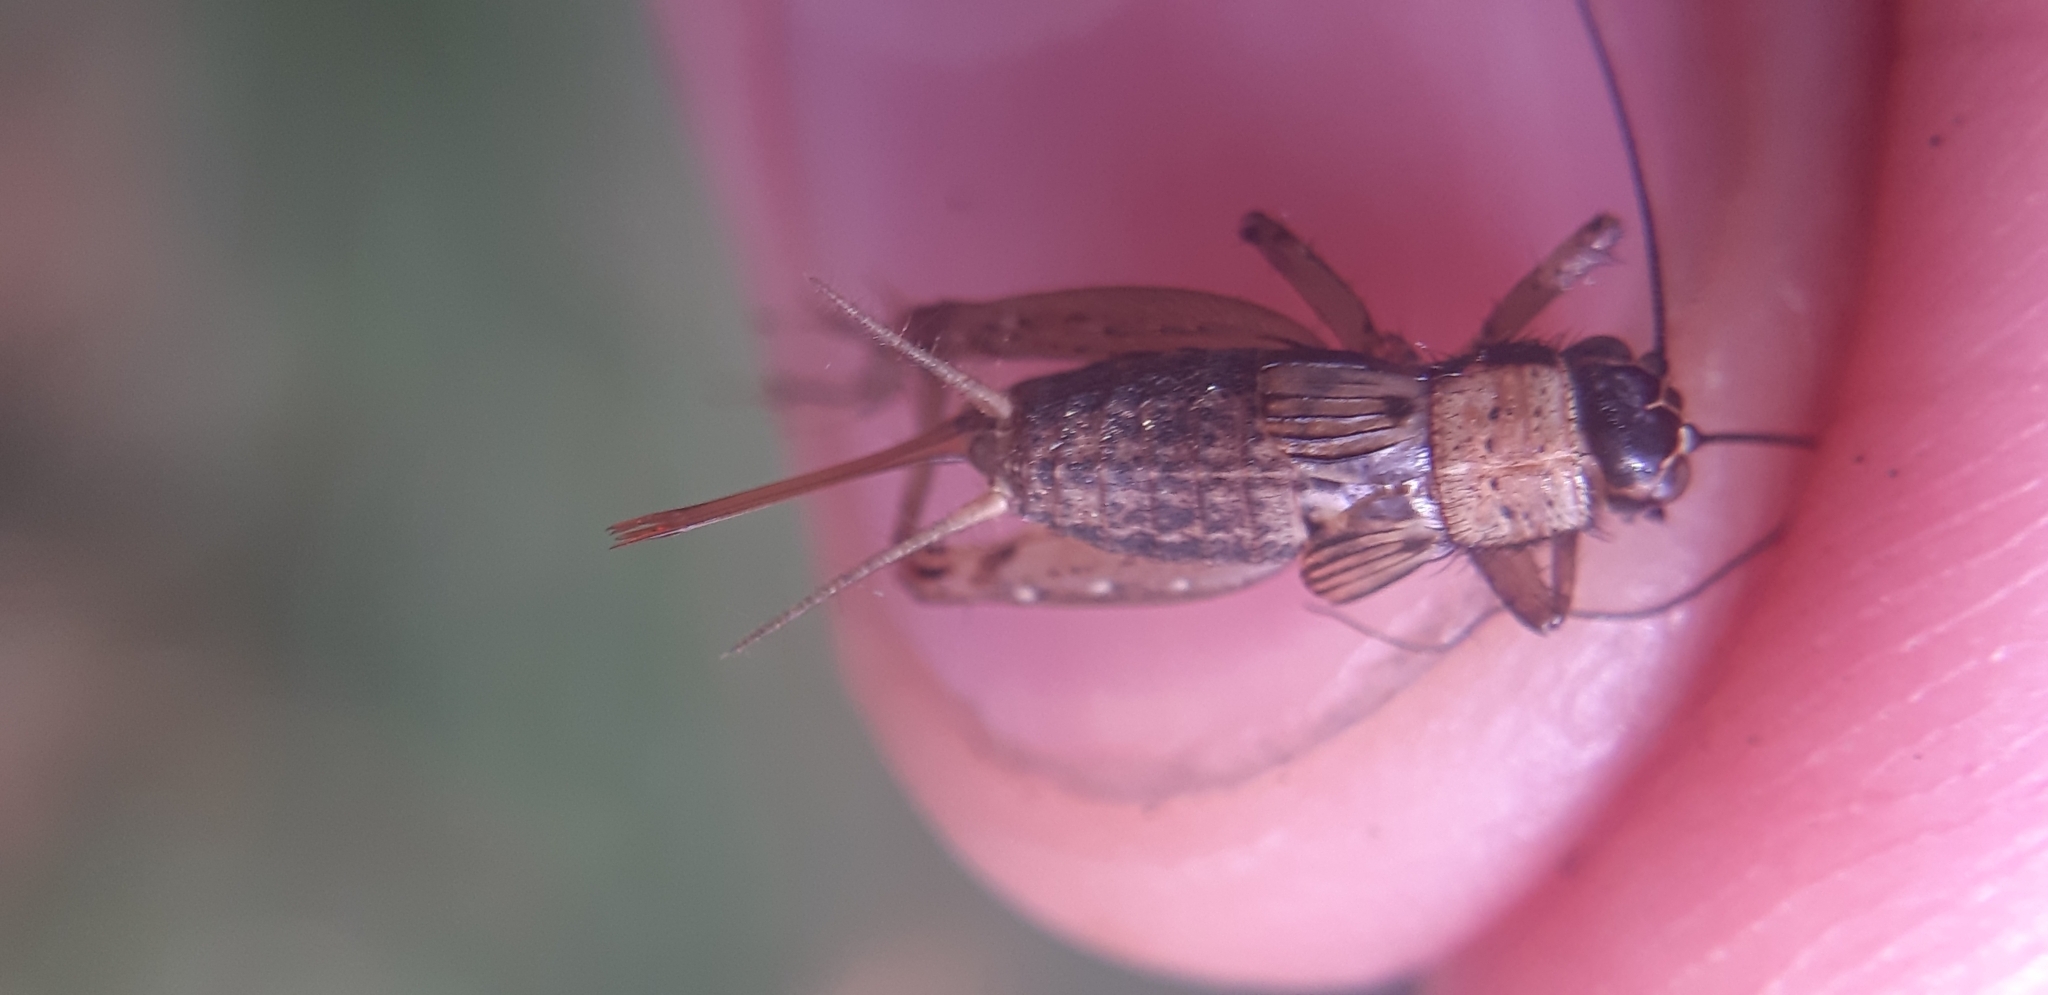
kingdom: Animalia
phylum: Arthropoda
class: Insecta
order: Orthoptera
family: Trigonidiidae
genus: Nemobius
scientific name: Nemobius sylvestris
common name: Wood-cricket
